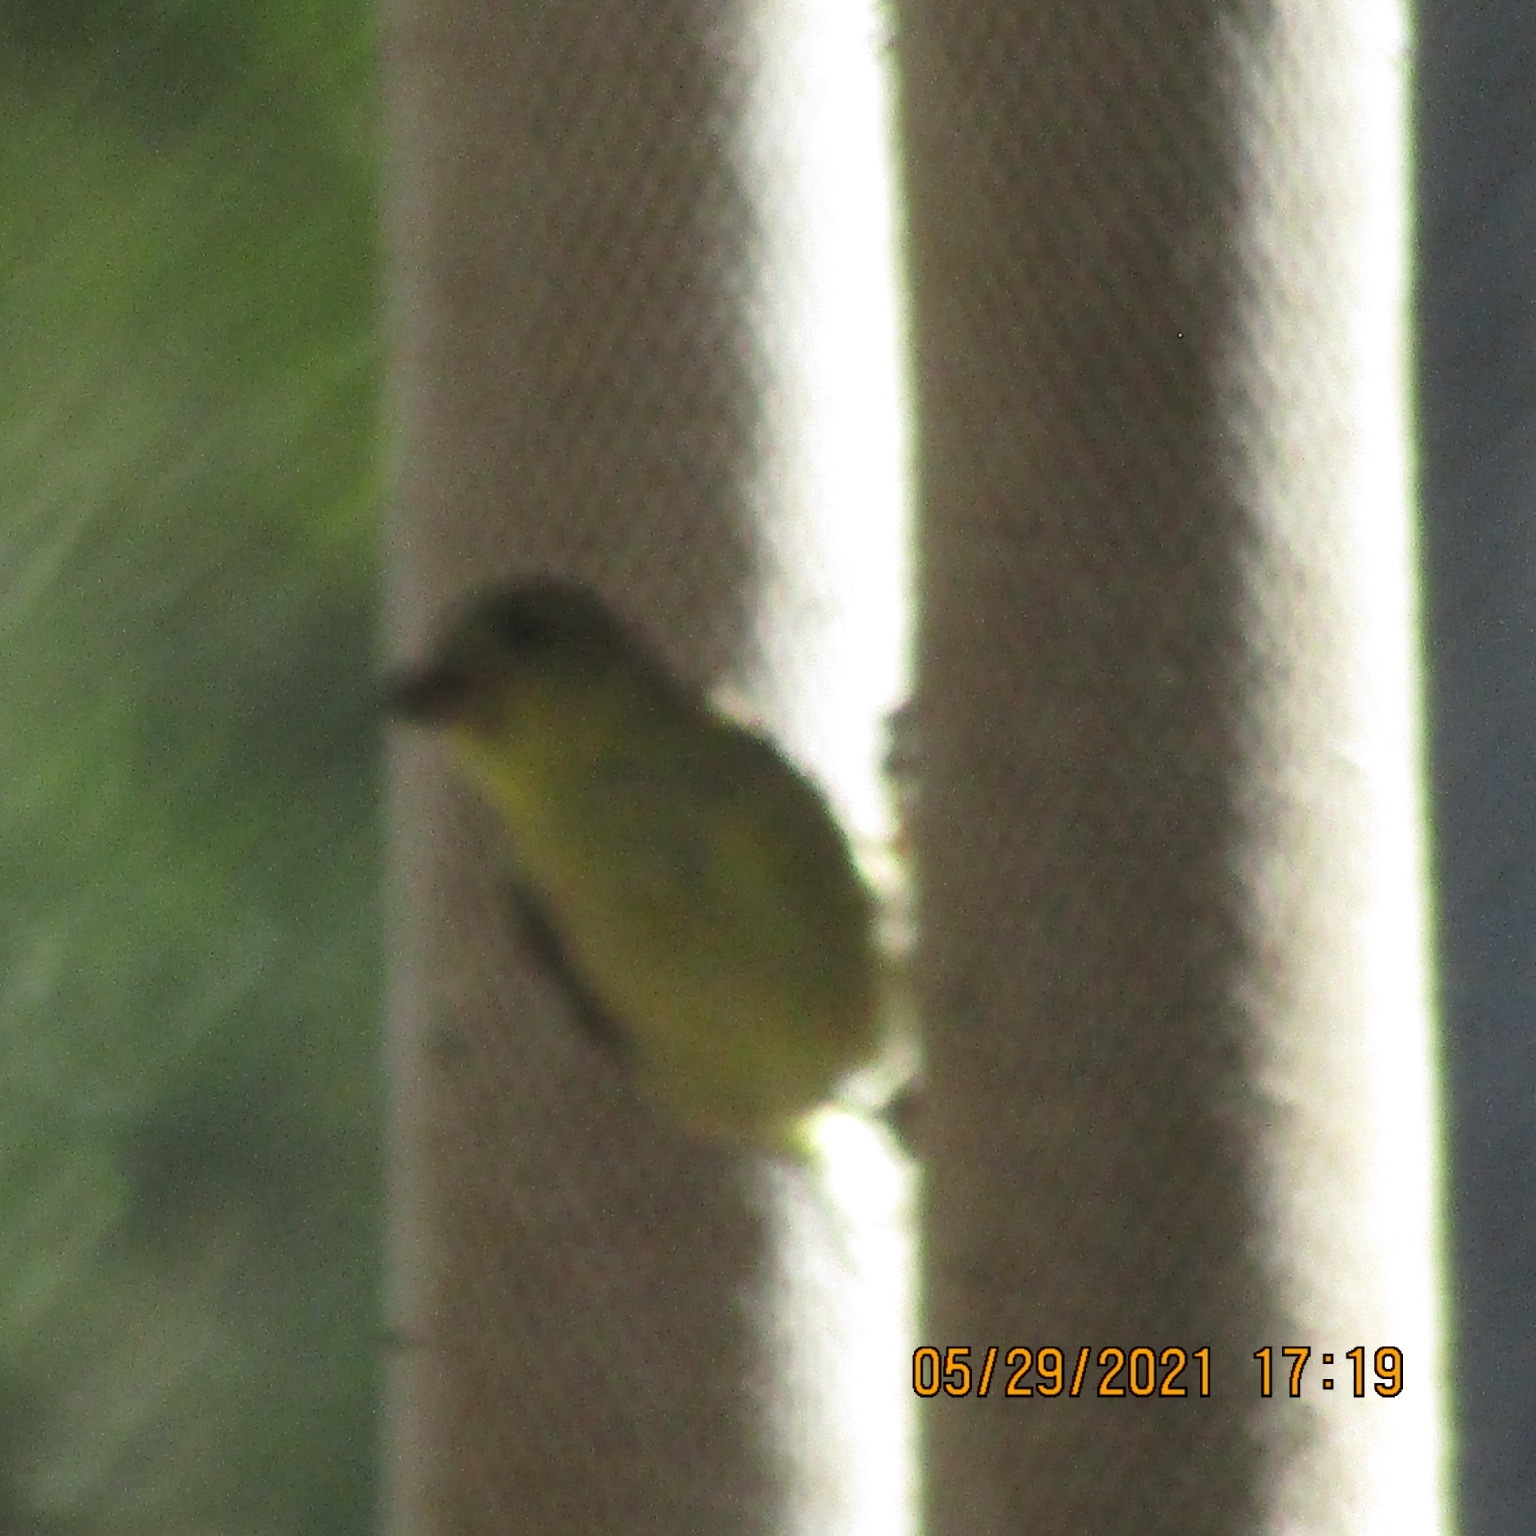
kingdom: Animalia
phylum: Chordata
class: Aves
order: Passeriformes
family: Fringillidae
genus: Spinus
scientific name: Spinus psaltria
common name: Lesser goldfinch
